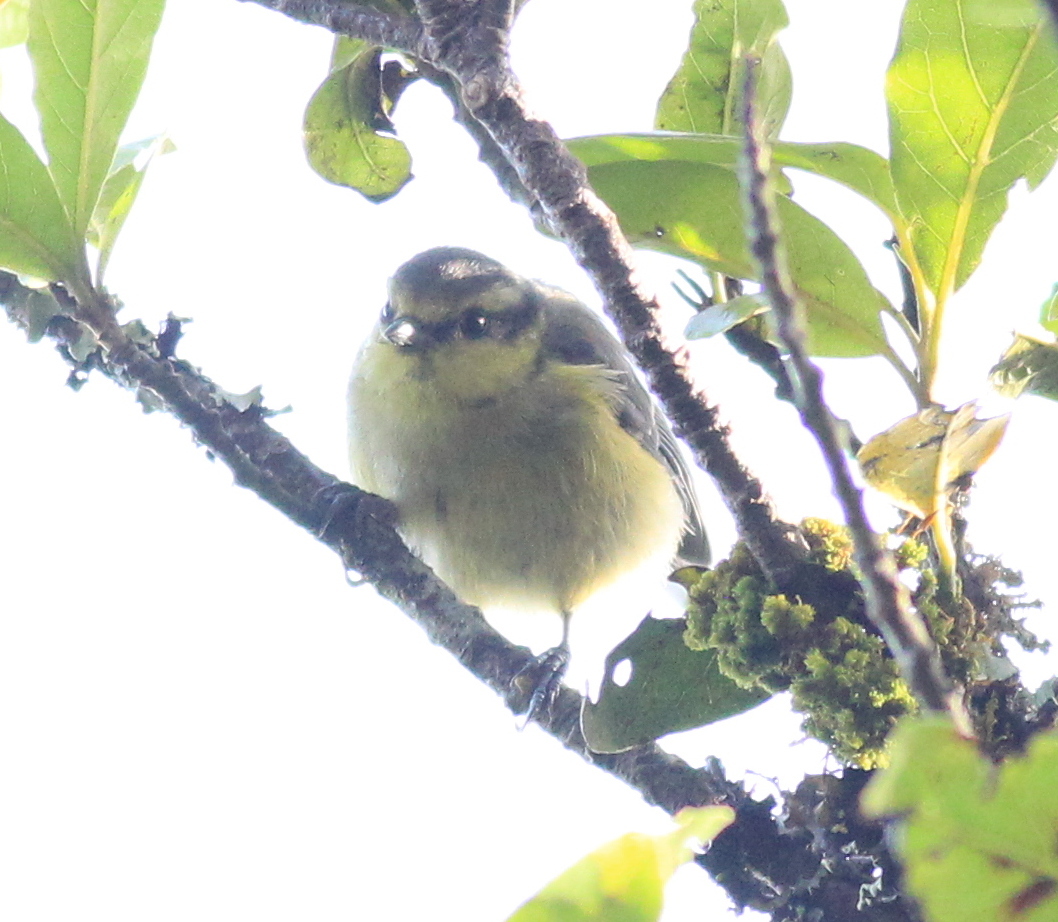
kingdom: Animalia
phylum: Chordata
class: Aves
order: Passeriformes
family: Paridae
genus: Cyanistes
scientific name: Cyanistes teneriffae
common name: African blue tit
